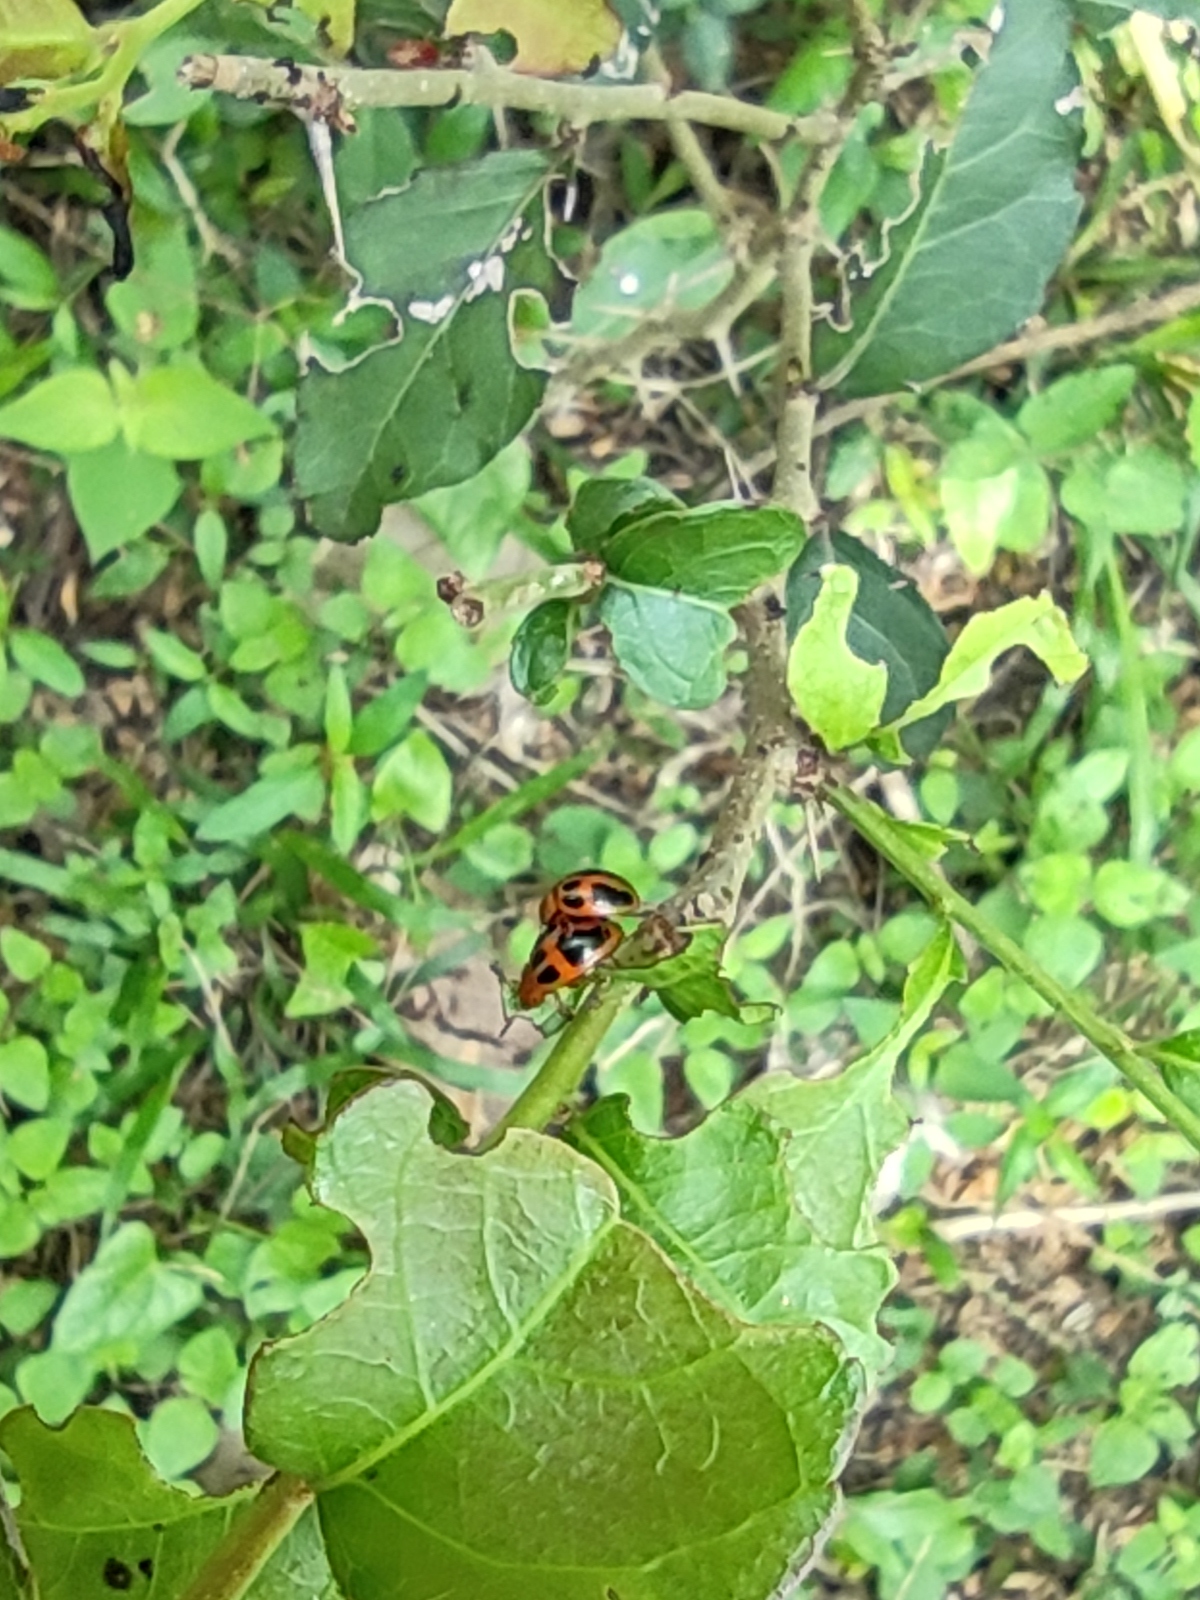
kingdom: Animalia
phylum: Arthropoda
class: Insecta
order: Coleoptera
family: Chrysomelidae
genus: Plagiodera
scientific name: Plagiodera
